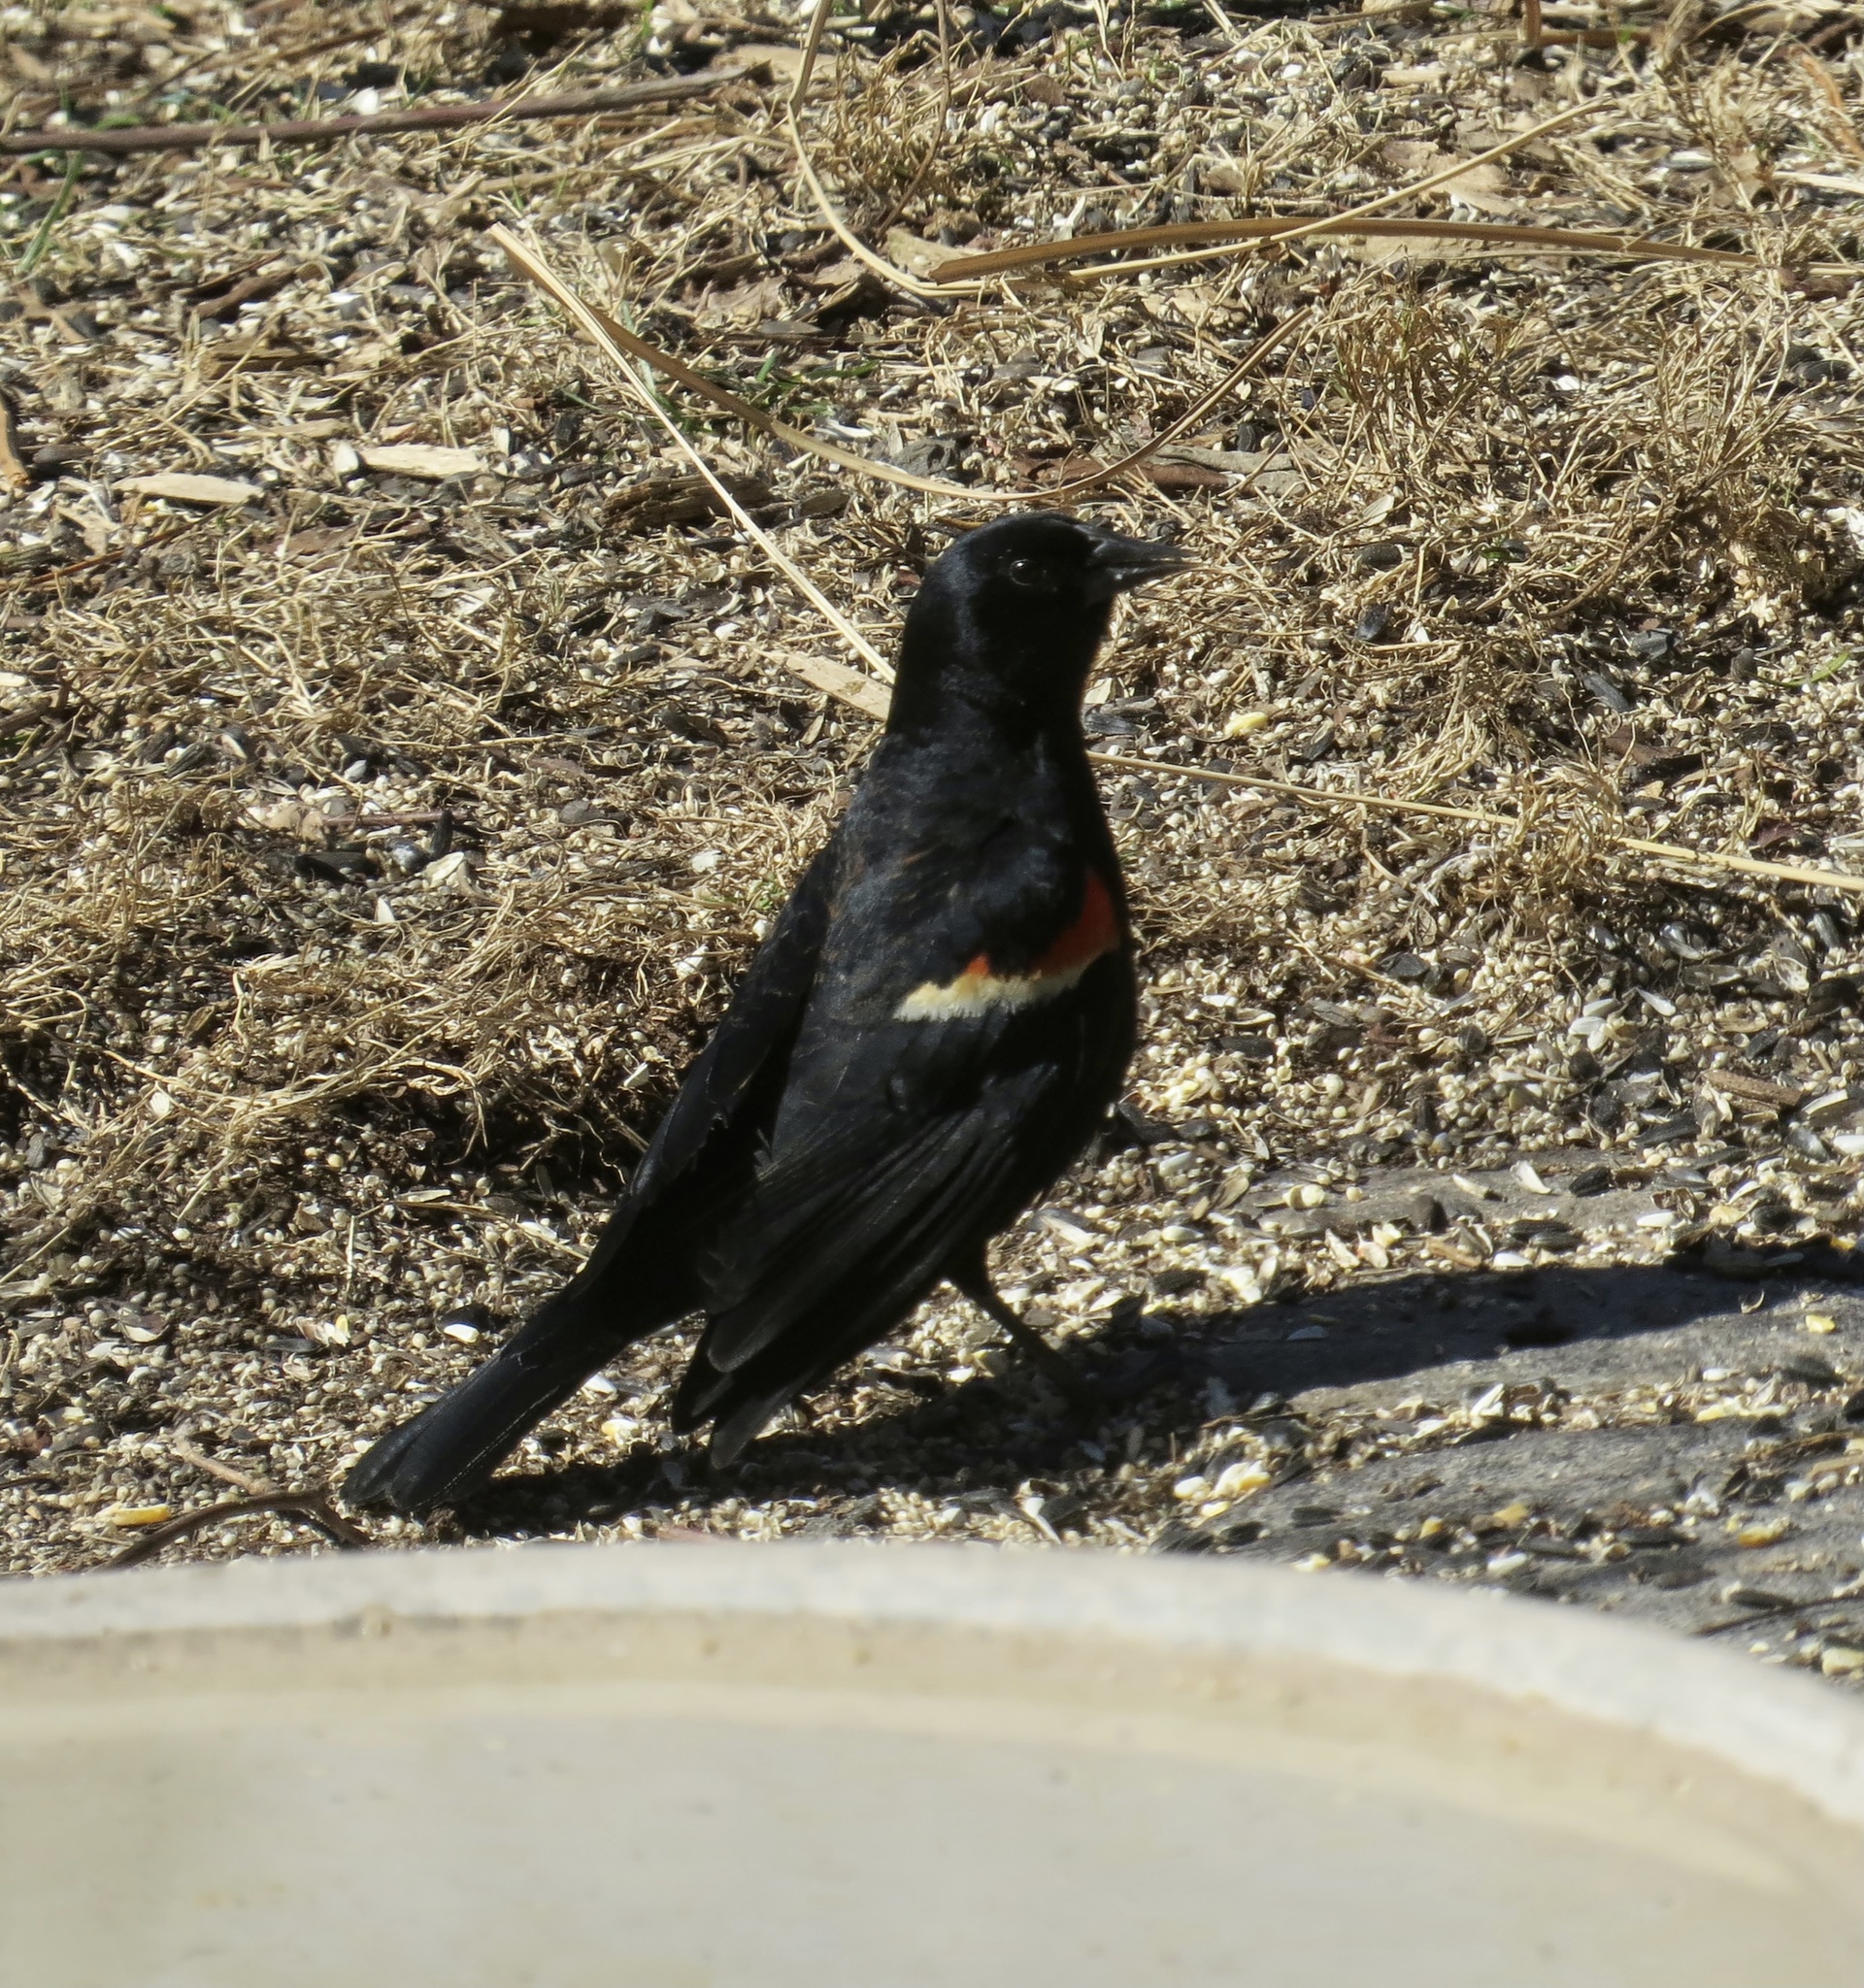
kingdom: Animalia
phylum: Chordata
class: Aves
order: Passeriformes
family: Icteridae
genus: Agelaius
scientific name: Agelaius phoeniceus
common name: Red-winged blackbird
